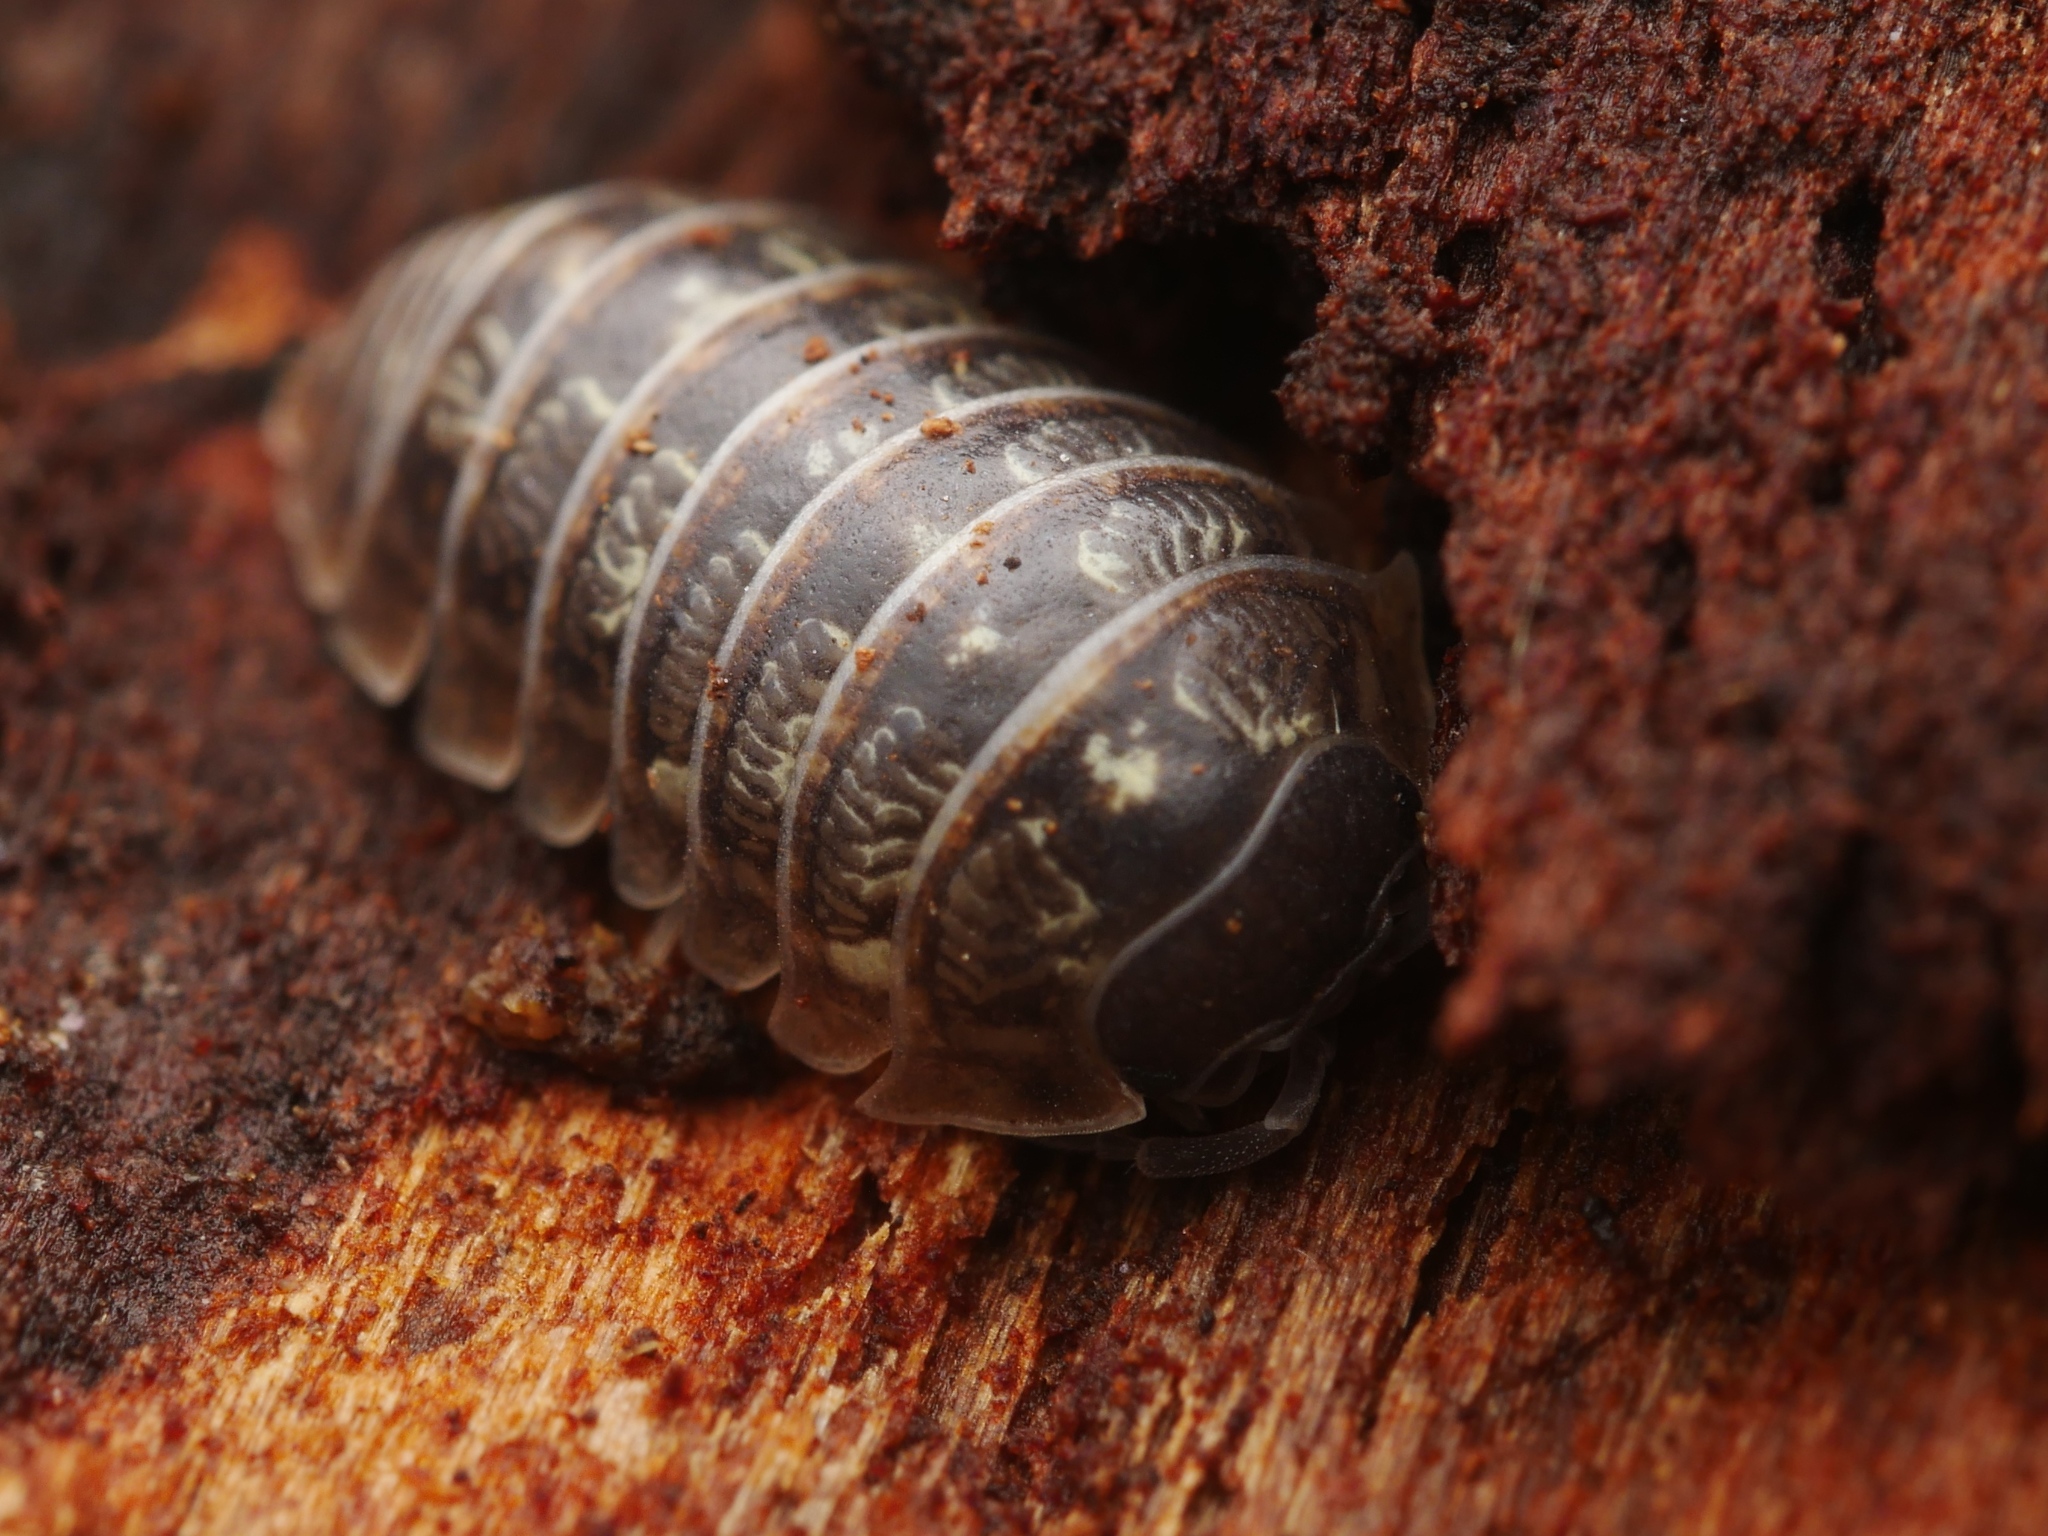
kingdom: Animalia
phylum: Arthropoda
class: Malacostraca
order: Isopoda
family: Armadillidiidae
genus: Armadillidium
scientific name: Armadillidium vulgare
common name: Common pill woodlouse
